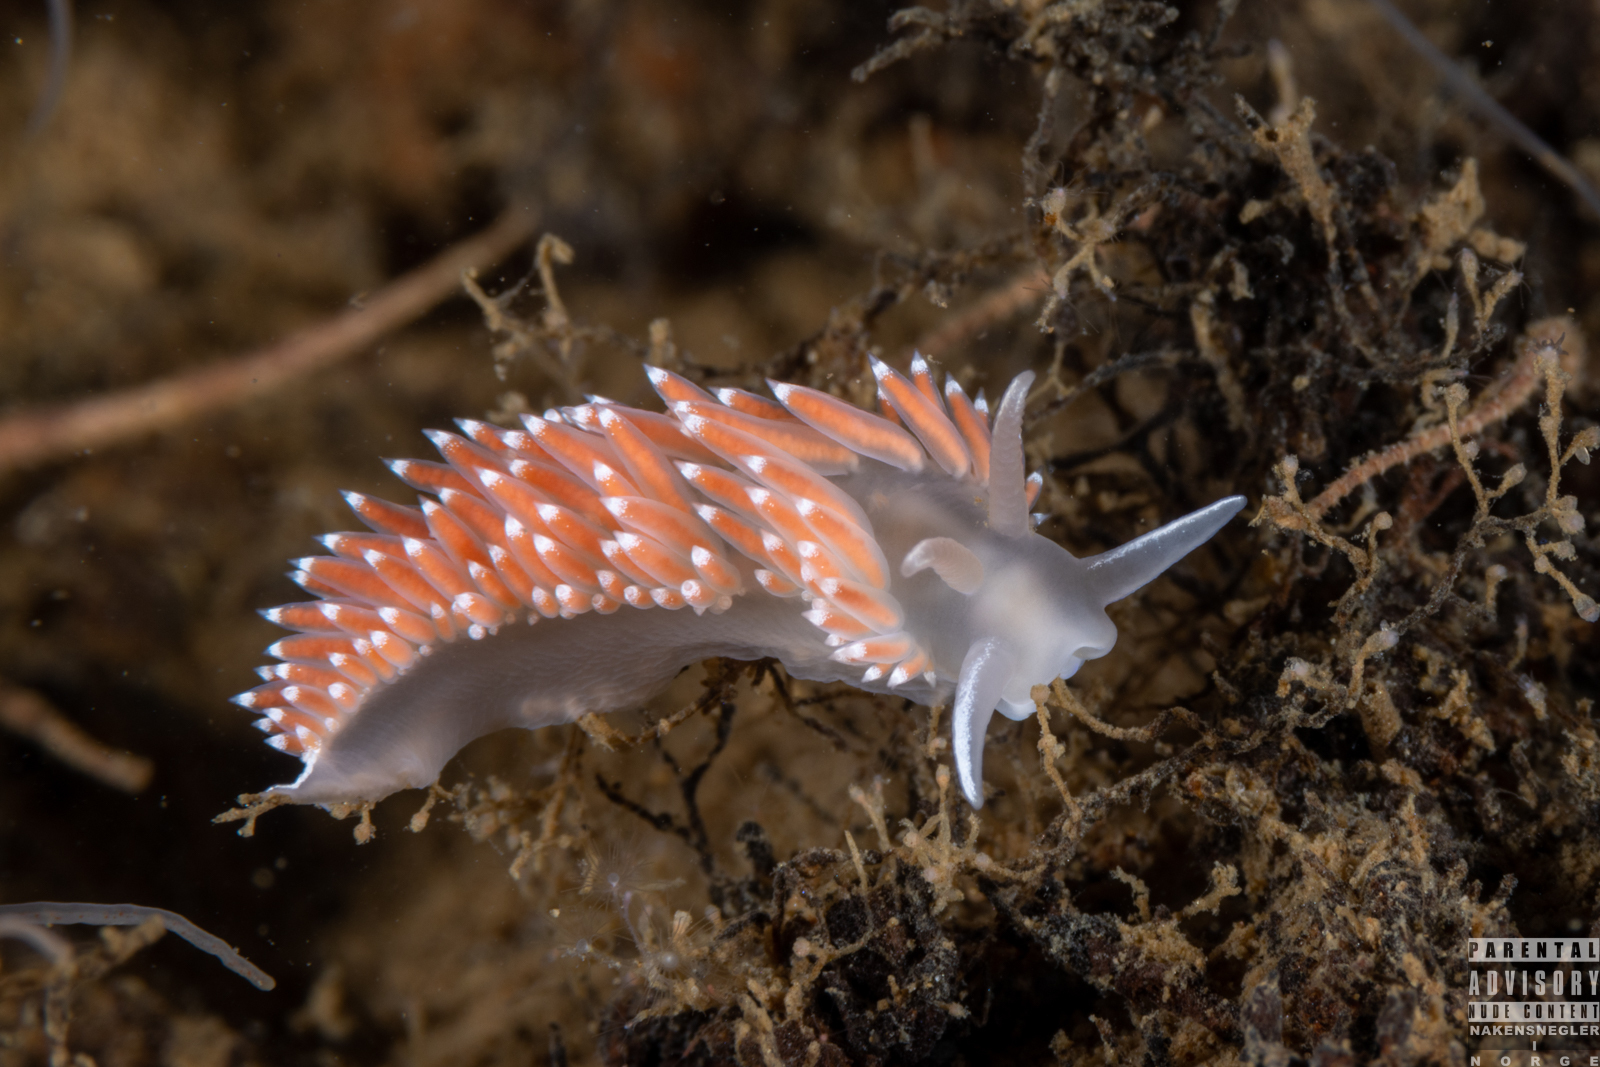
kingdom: Animalia
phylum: Mollusca
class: Gastropoda
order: Nudibranchia
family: Coryphellidae
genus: Coryphella
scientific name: Coryphella verrucosa
